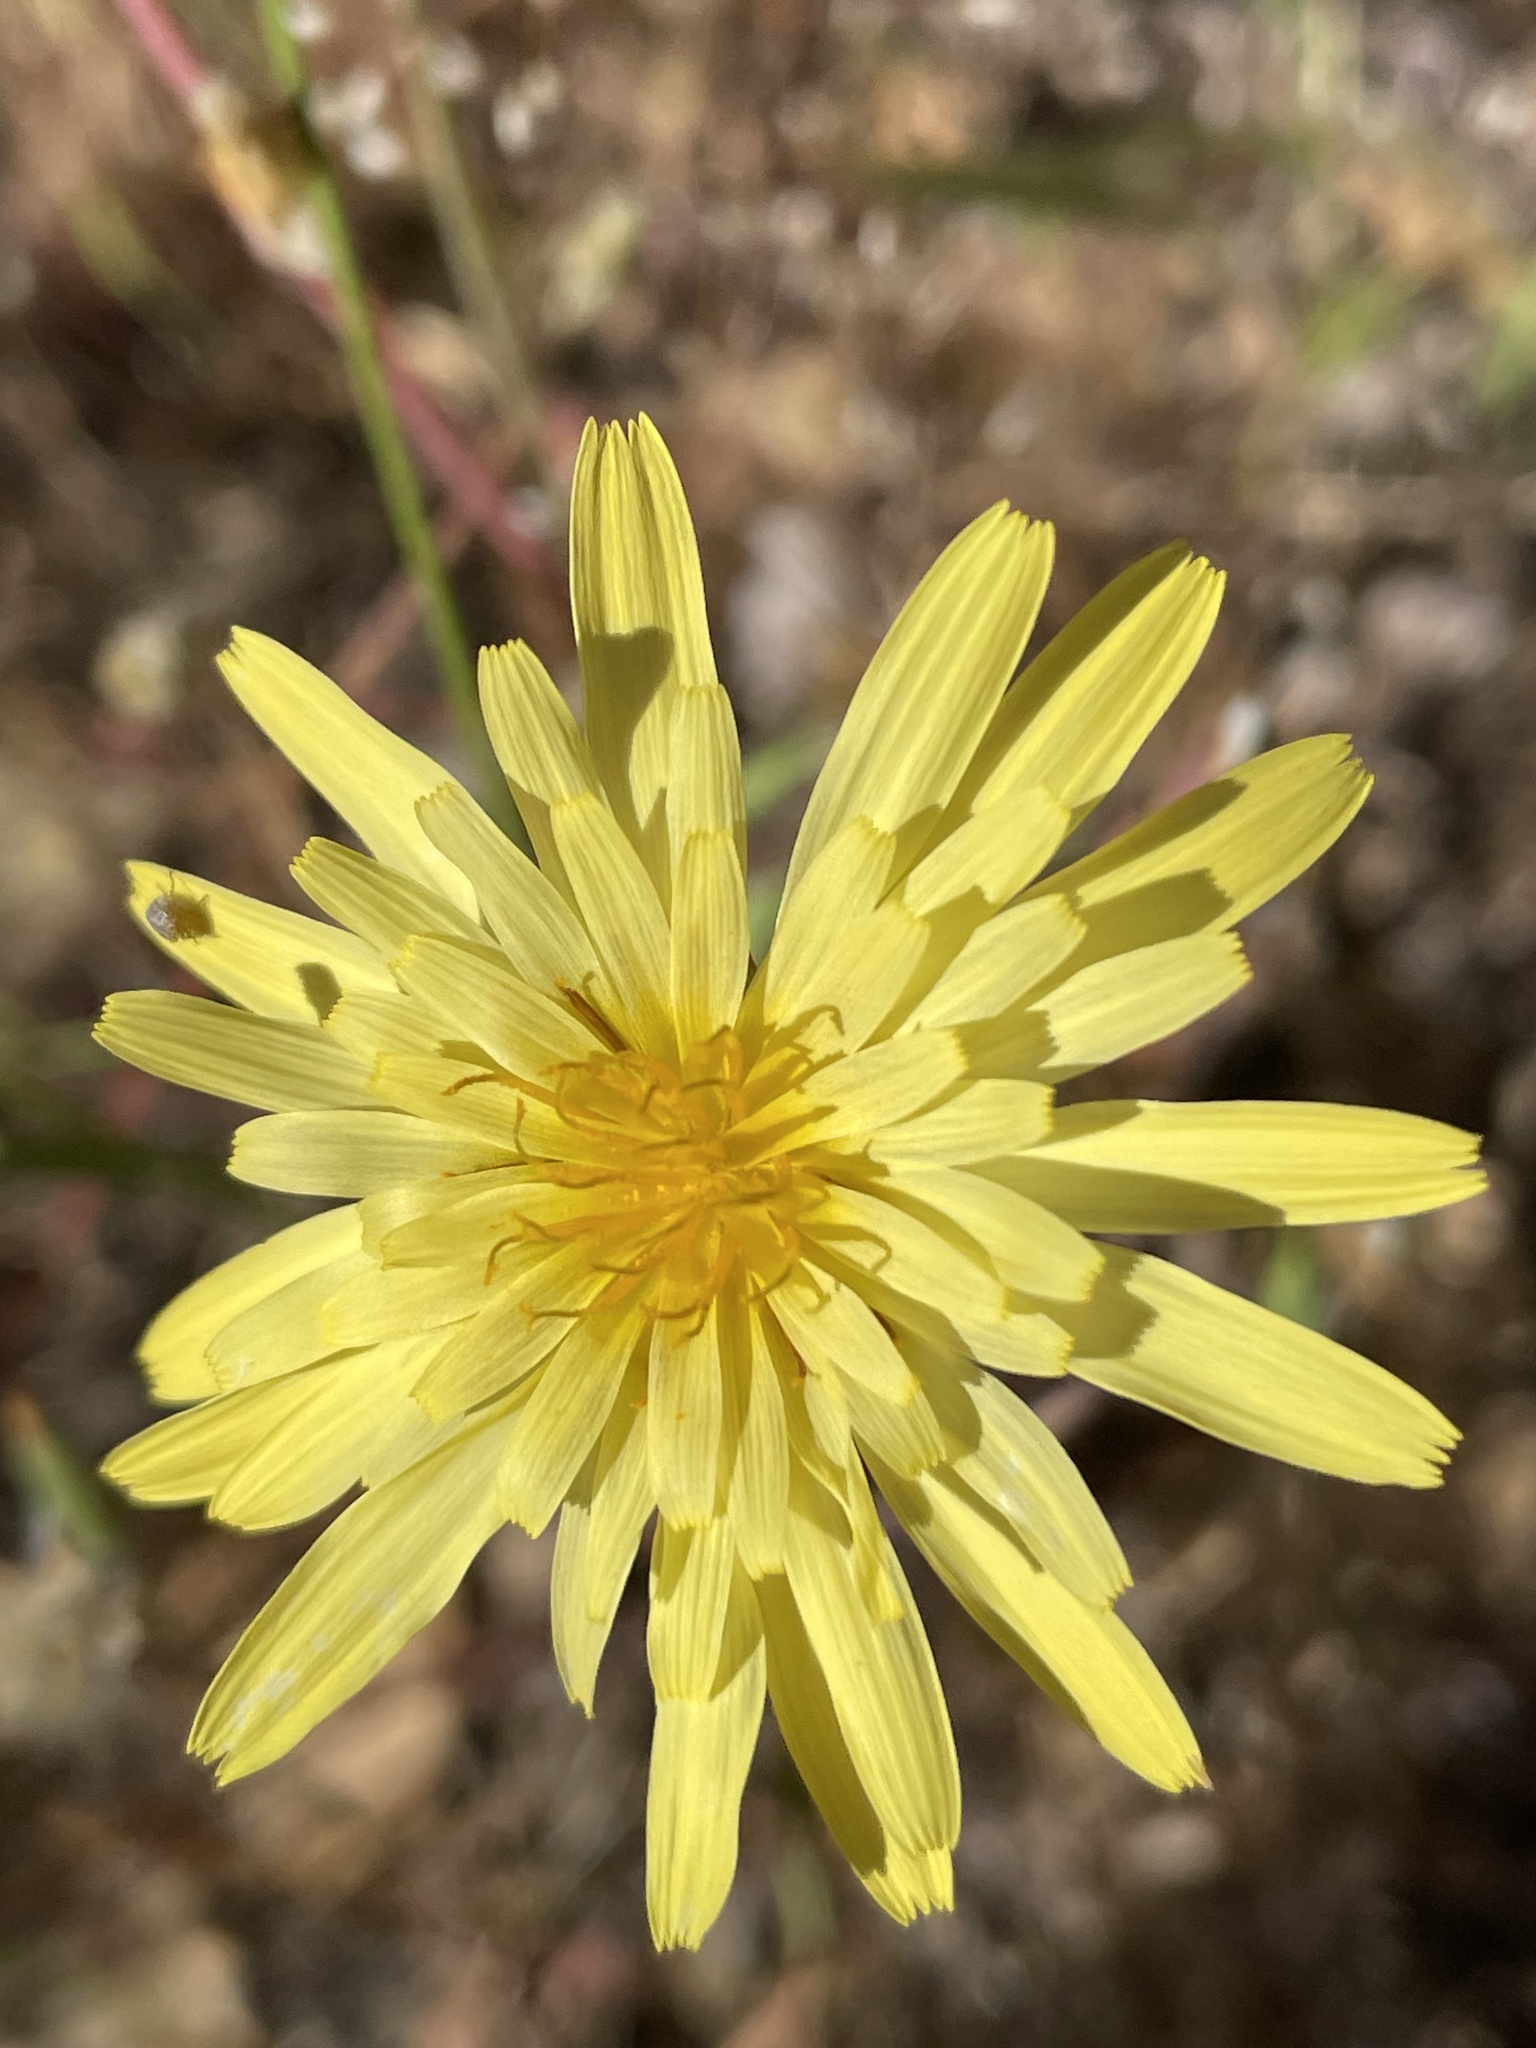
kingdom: Plantae
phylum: Tracheophyta
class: Magnoliopsida
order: Asterales
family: Asteraceae
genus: Agoseris
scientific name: Agoseris heterophylla
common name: Annual agoseris
